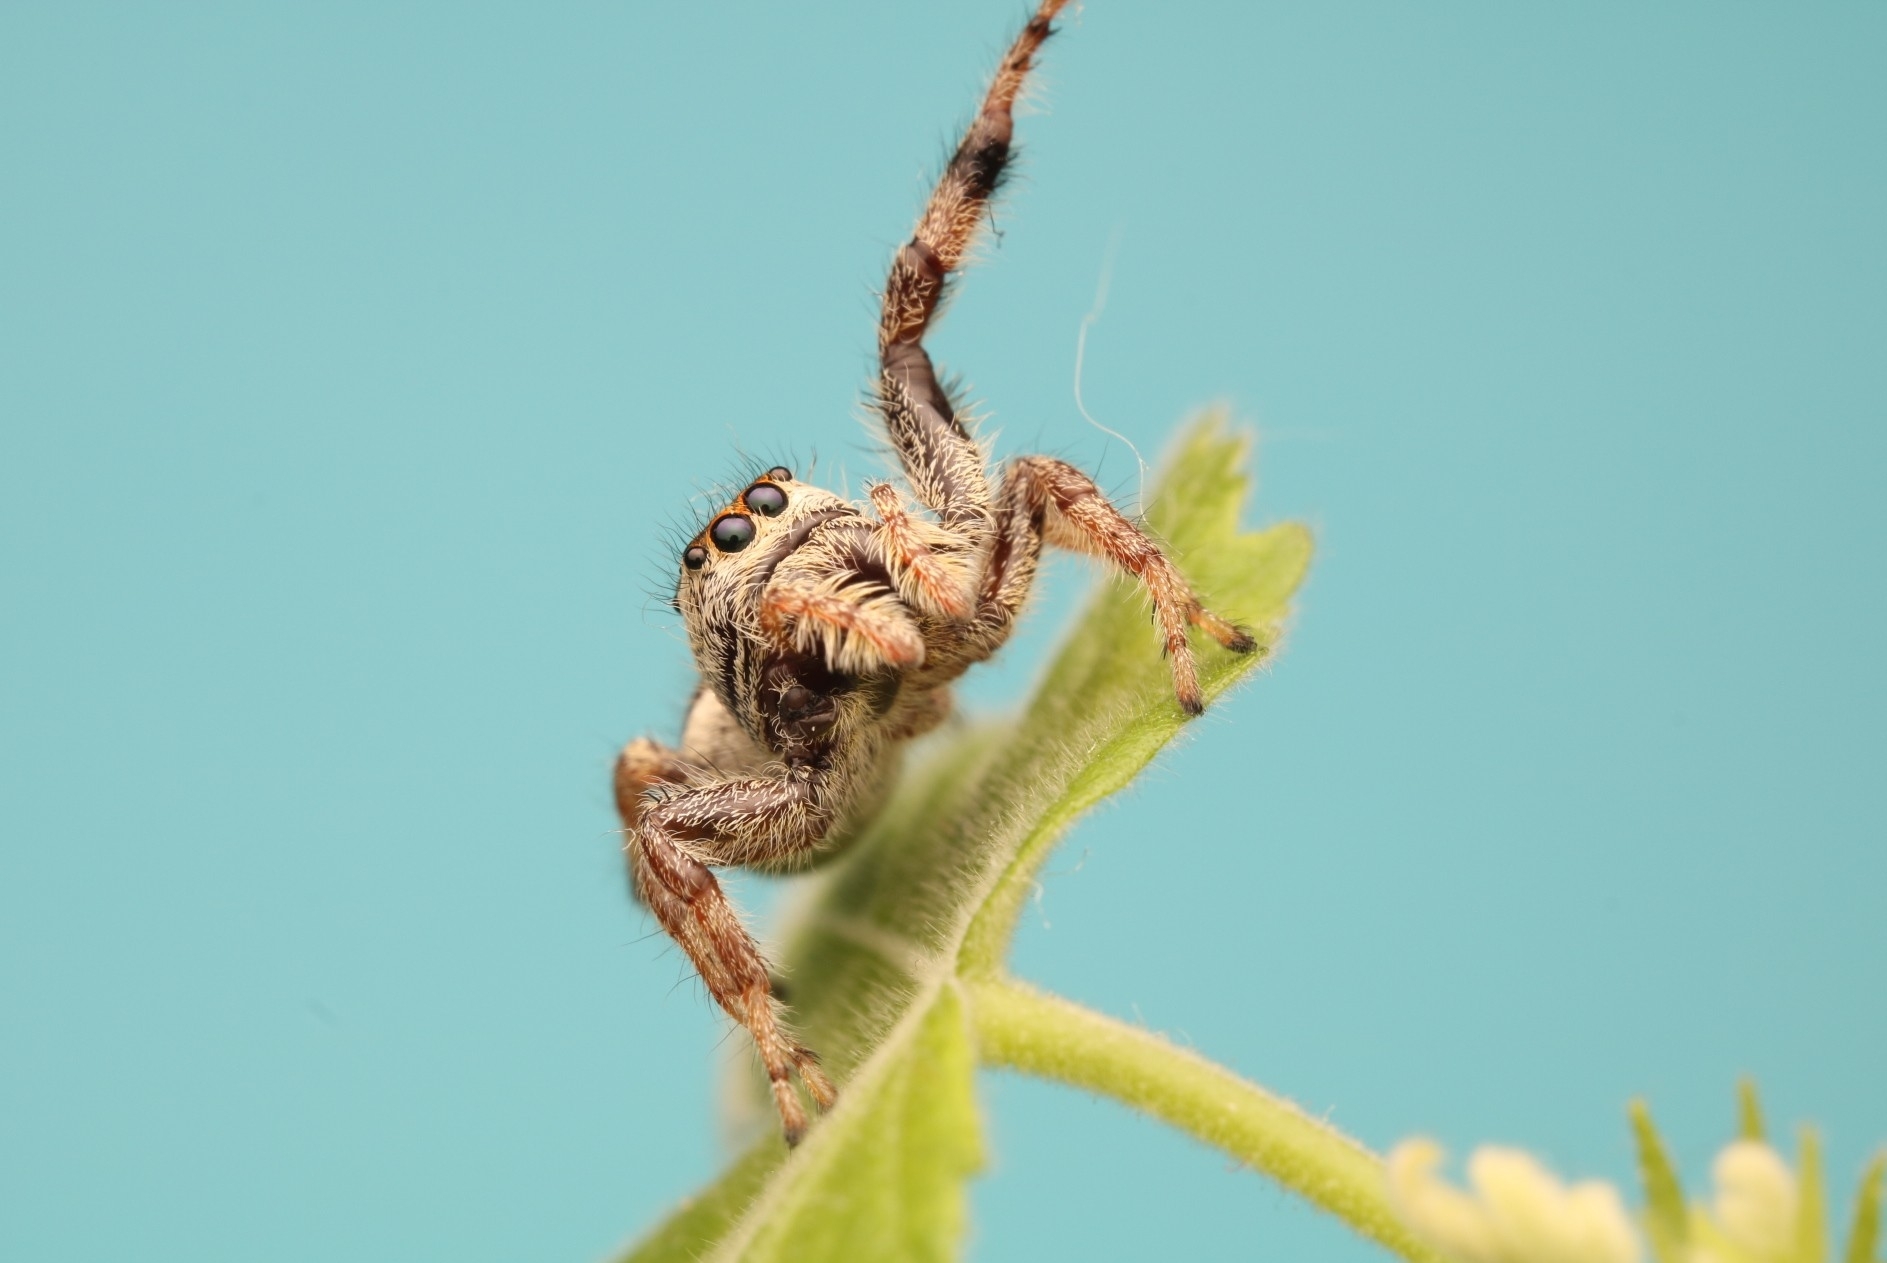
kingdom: Animalia
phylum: Arthropoda
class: Arachnida
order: Araneae
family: Salticidae
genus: Paraphidippus
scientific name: Paraphidippus aurantius
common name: Jumping spiders
